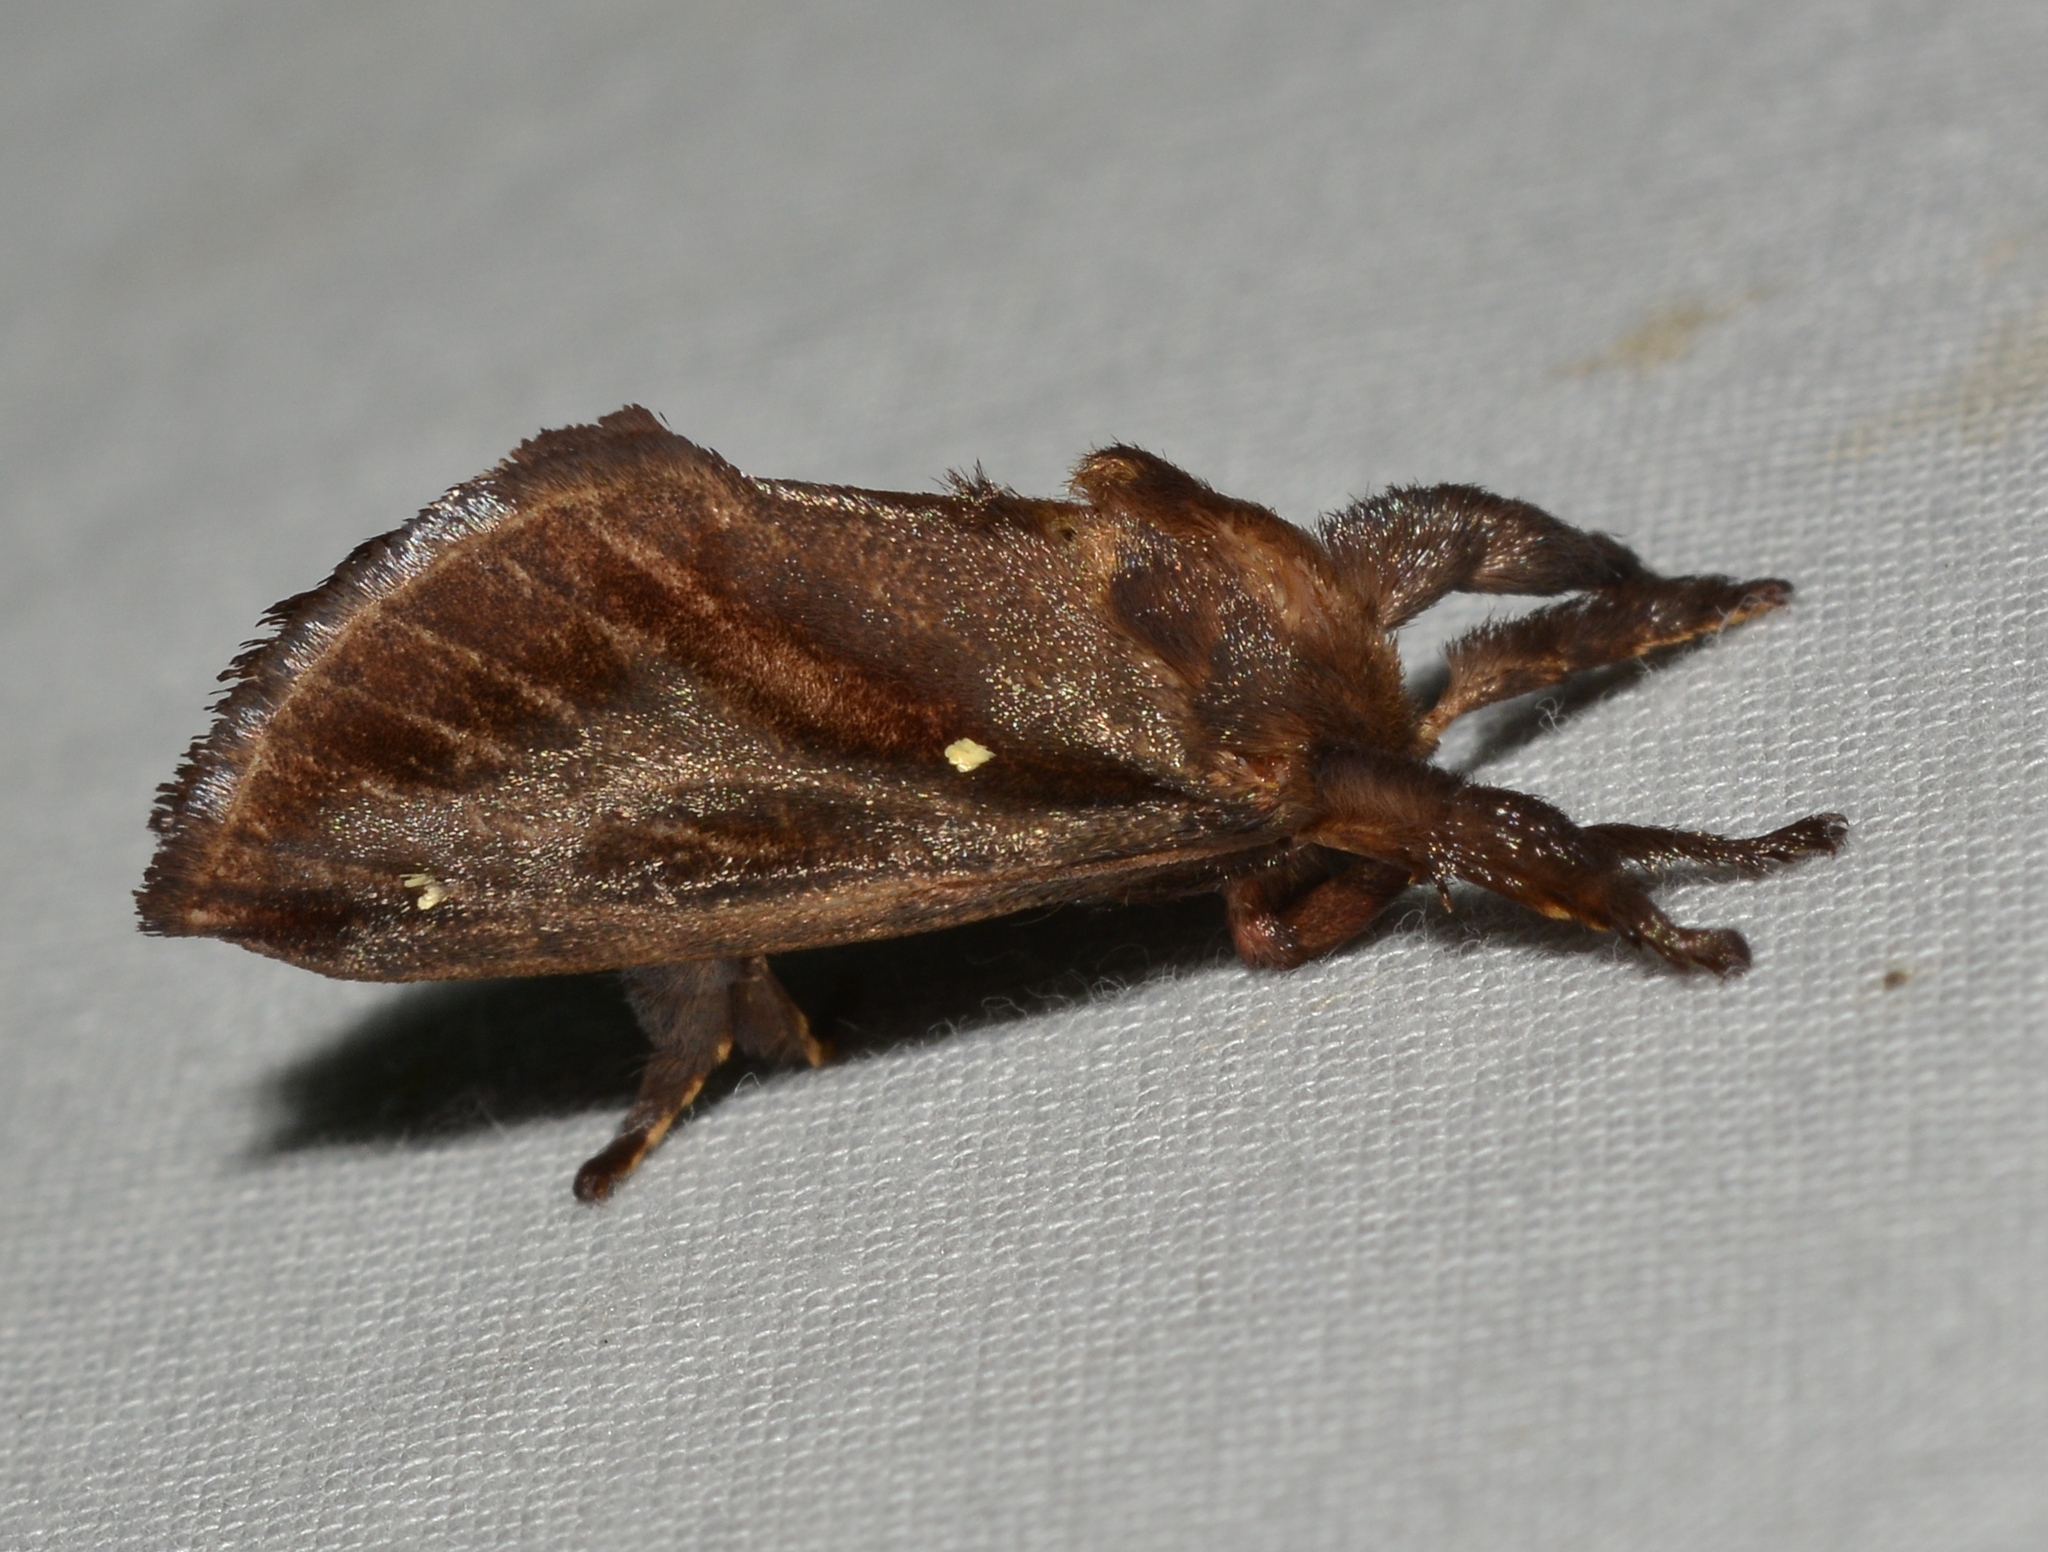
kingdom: Animalia
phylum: Arthropoda
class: Insecta
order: Lepidoptera
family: Limacodidae
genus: Acharia
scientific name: Acharia stimulea
